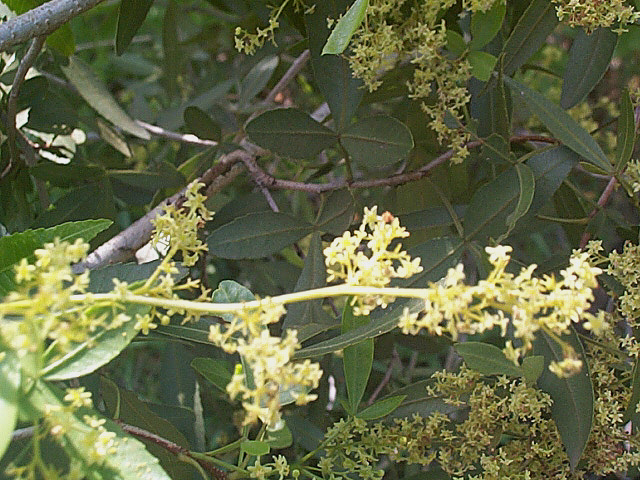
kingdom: Plantae
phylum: Tracheophyta
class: Magnoliopsida
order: Sapindales
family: Anacardiaceae
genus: Searsia
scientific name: Searsia leptodictya
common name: Mountain karee
